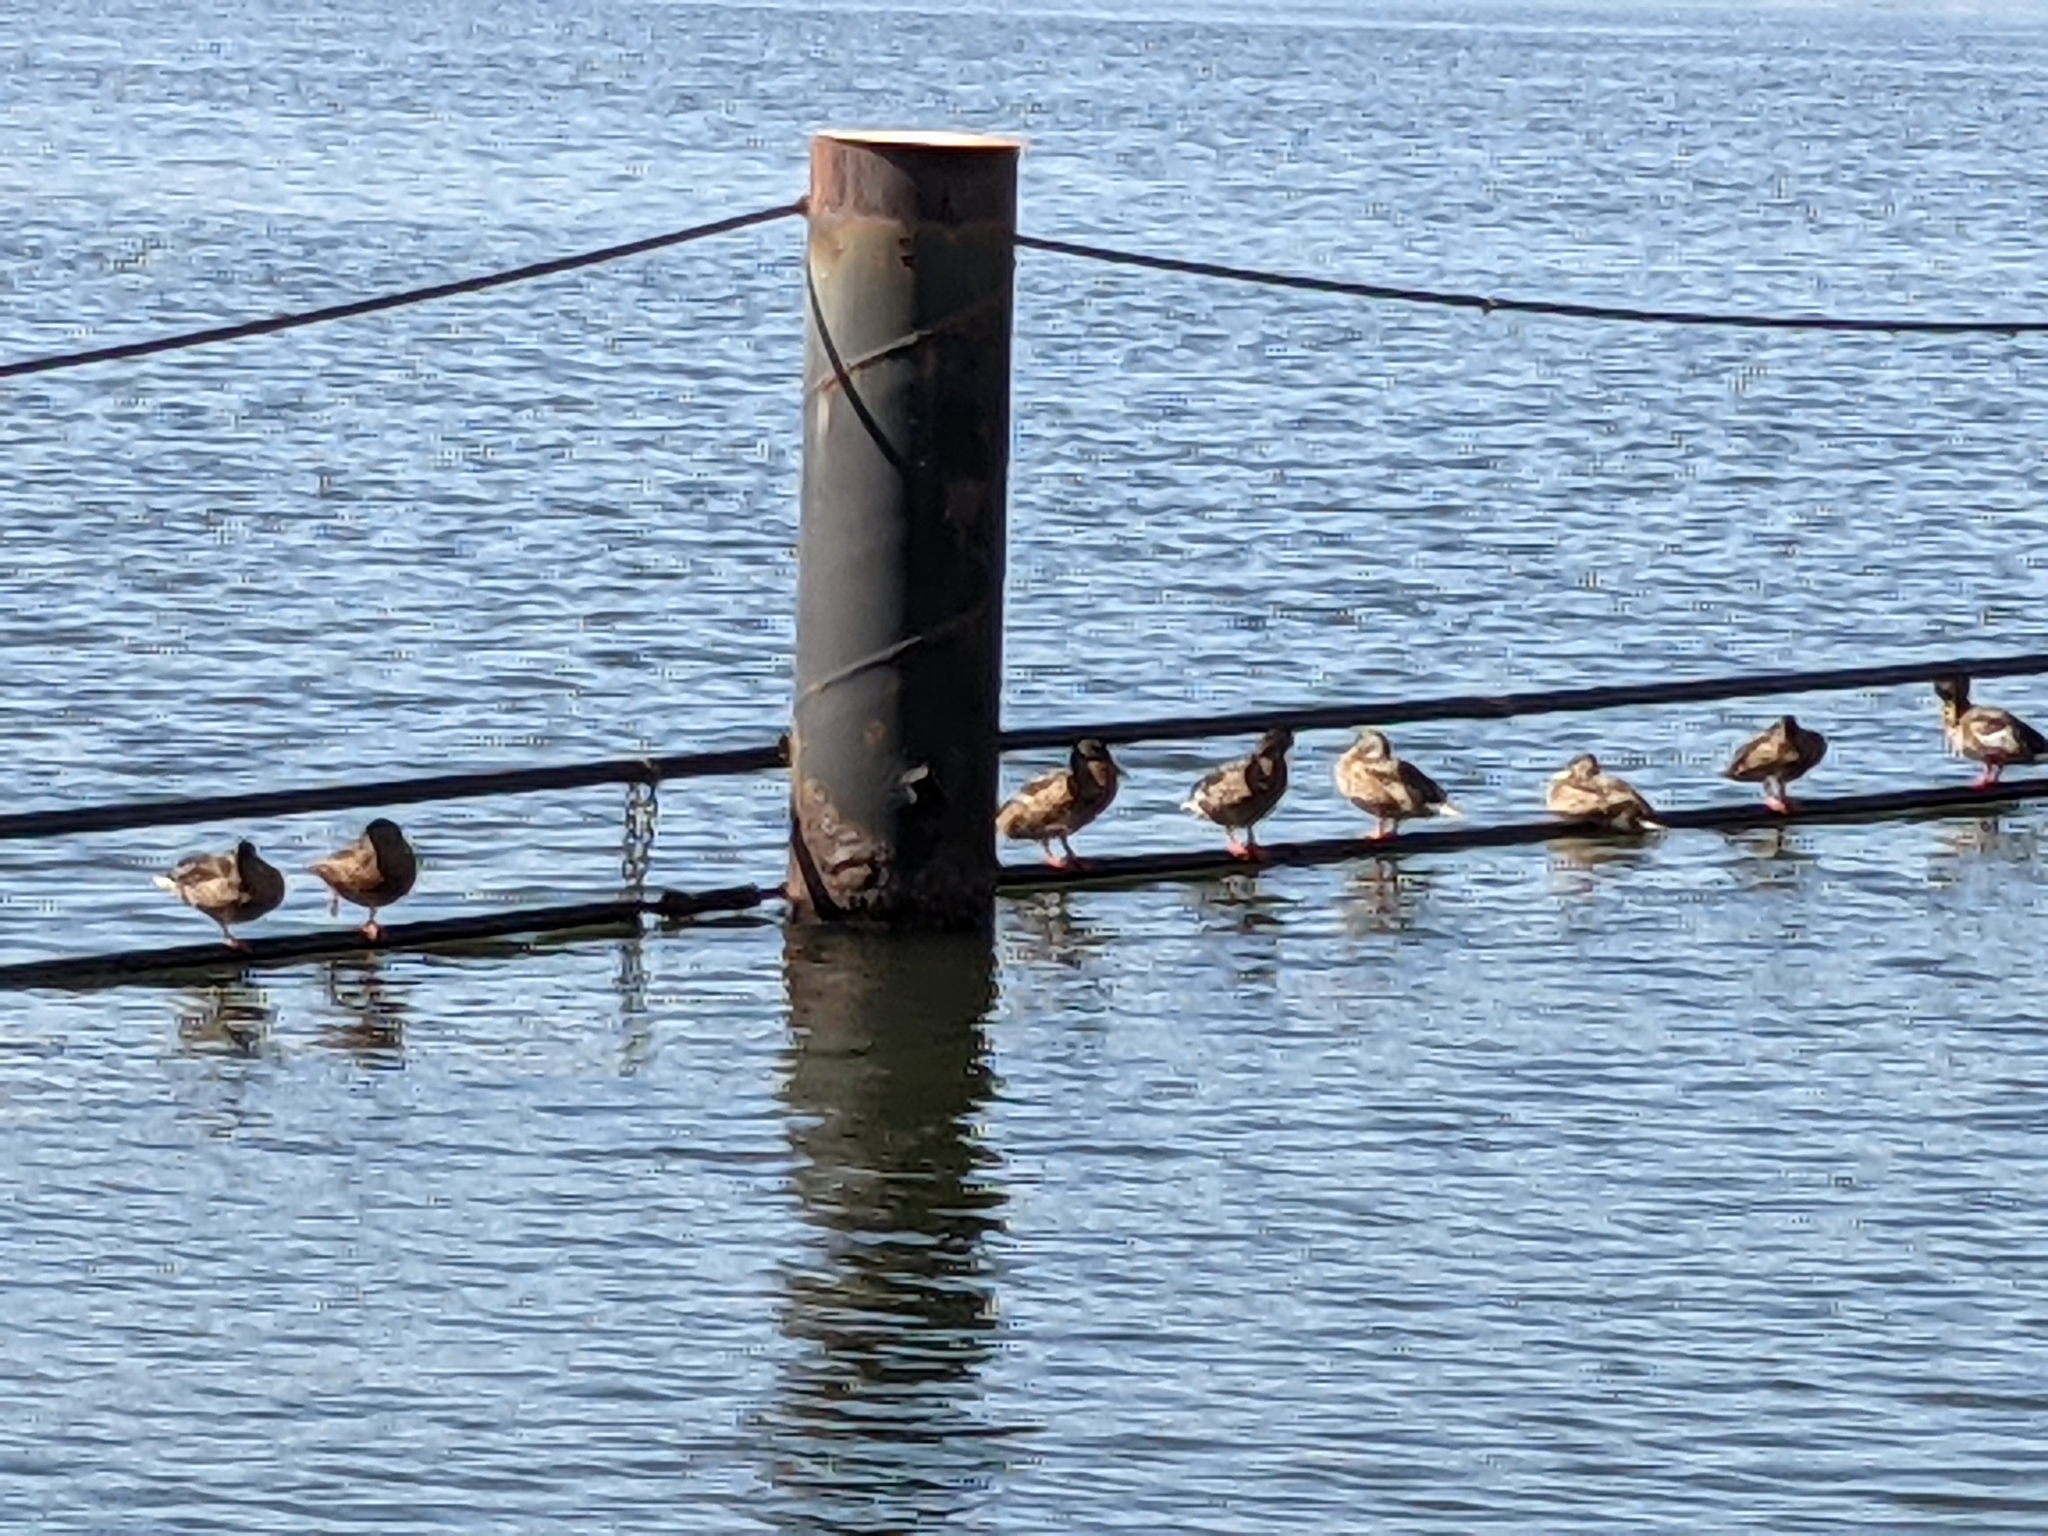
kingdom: Animalia
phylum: Chordata
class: Aves
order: Anseriformes
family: Anatidae
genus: Anas
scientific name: Anas platyrhynchos
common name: Mallard
